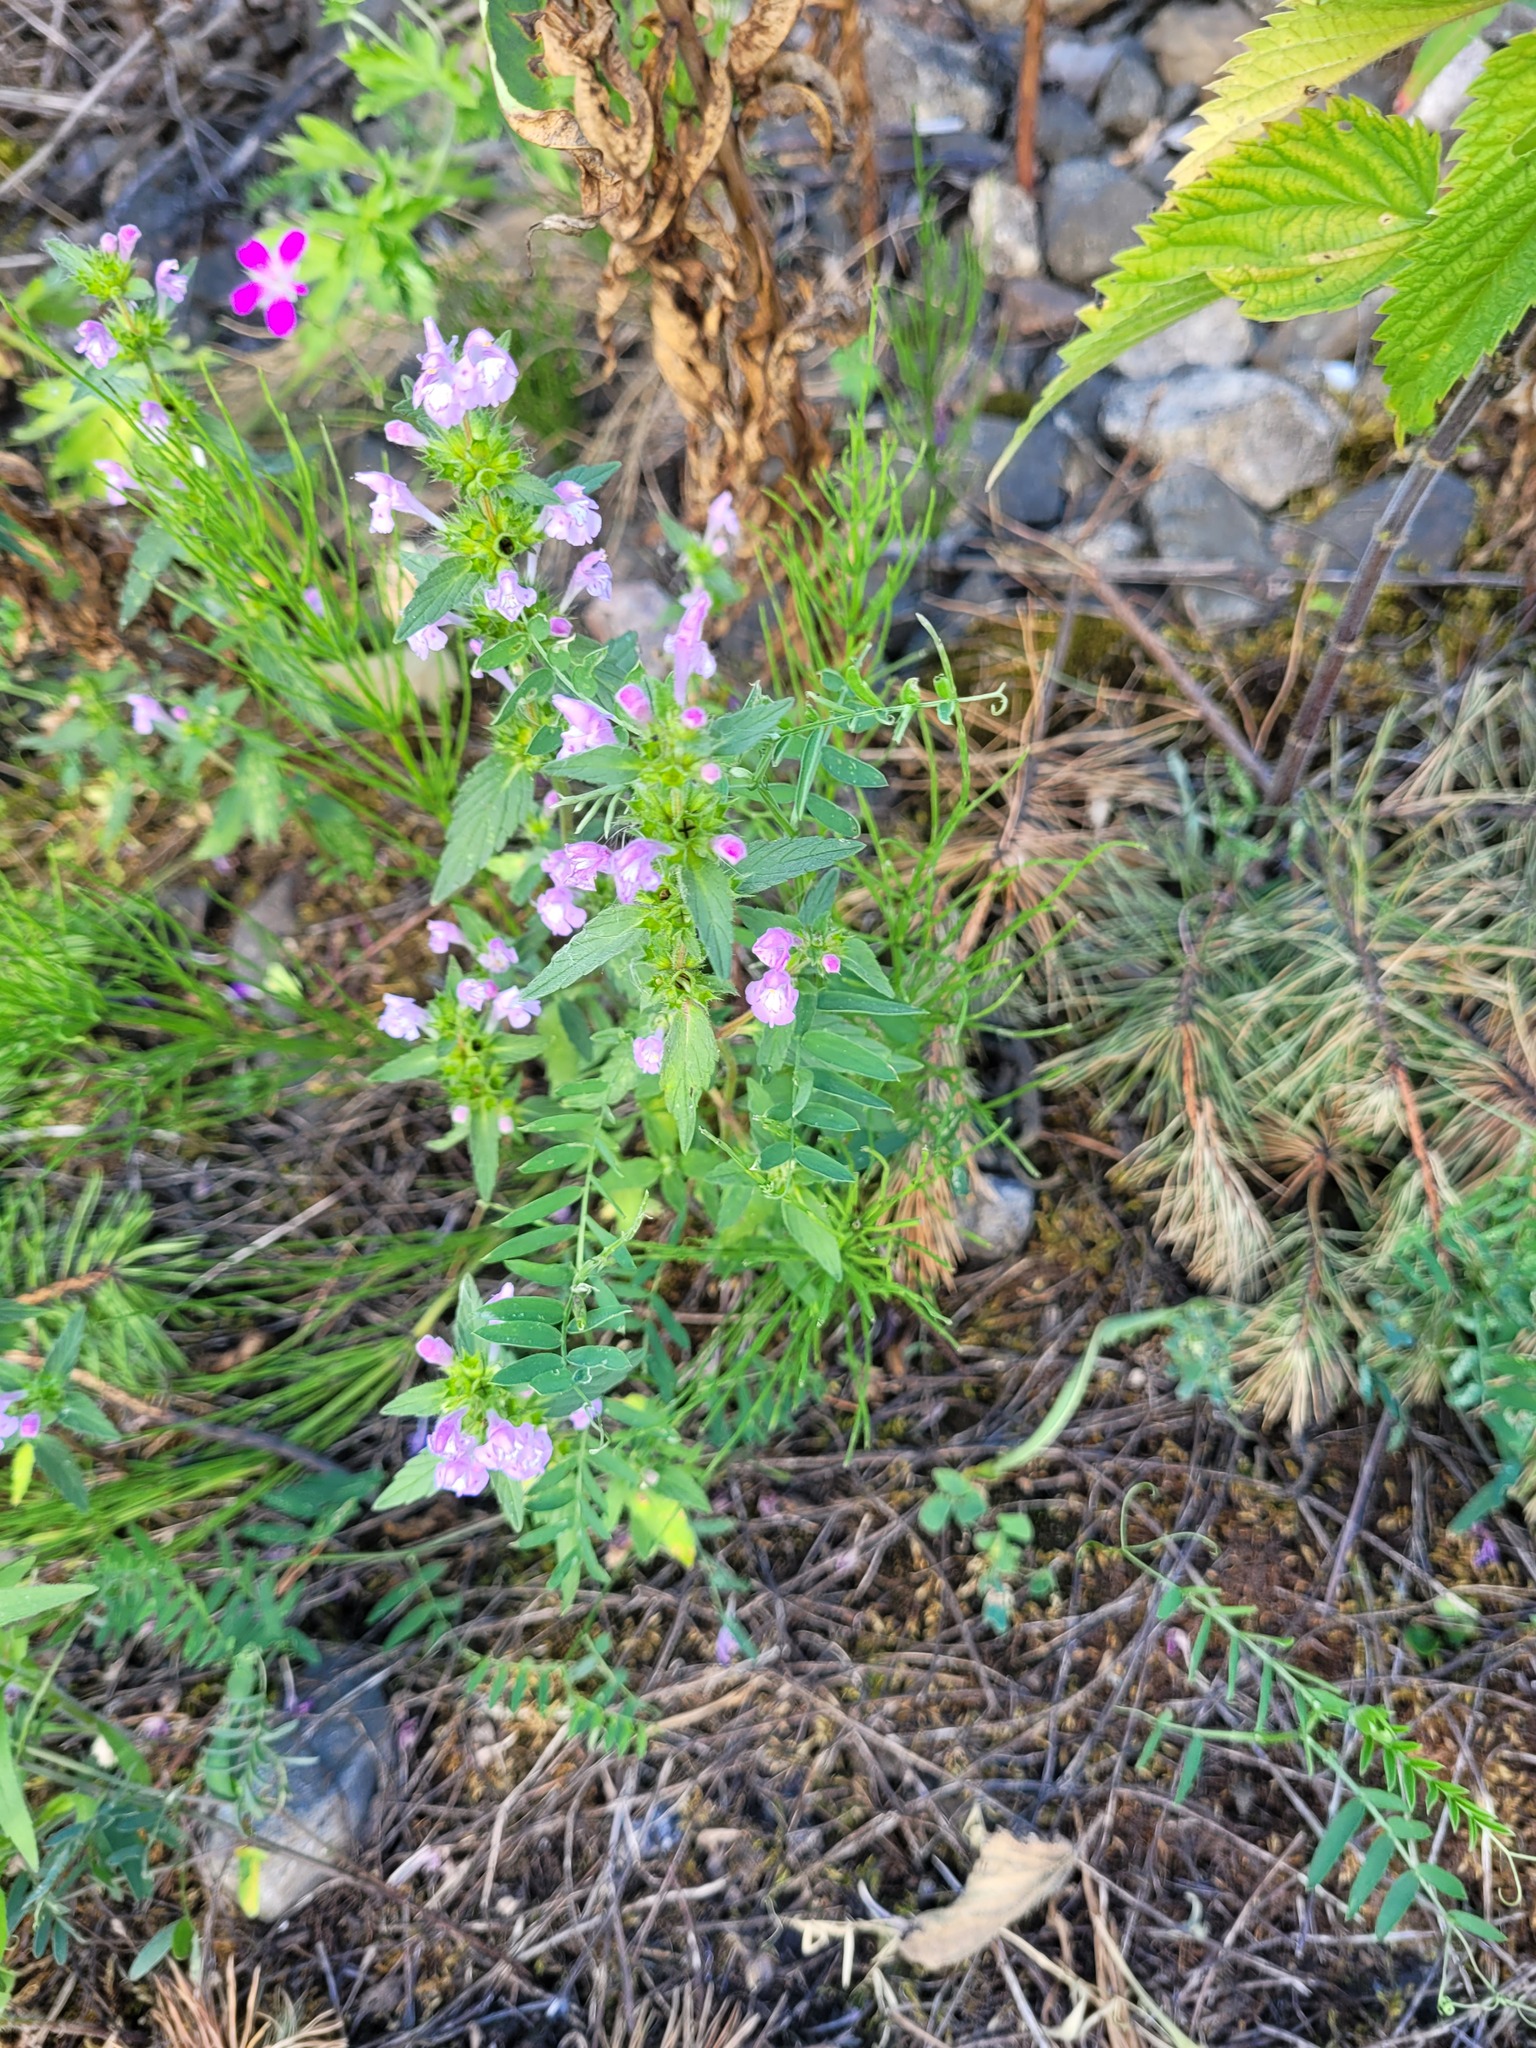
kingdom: Plantae
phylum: Tracheophyta
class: Magnoliopsida
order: Lamiales
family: Lamiaceae
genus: Galeopsis
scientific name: Galeopsis ladanum
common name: Broad-leaved hemp-nettle
